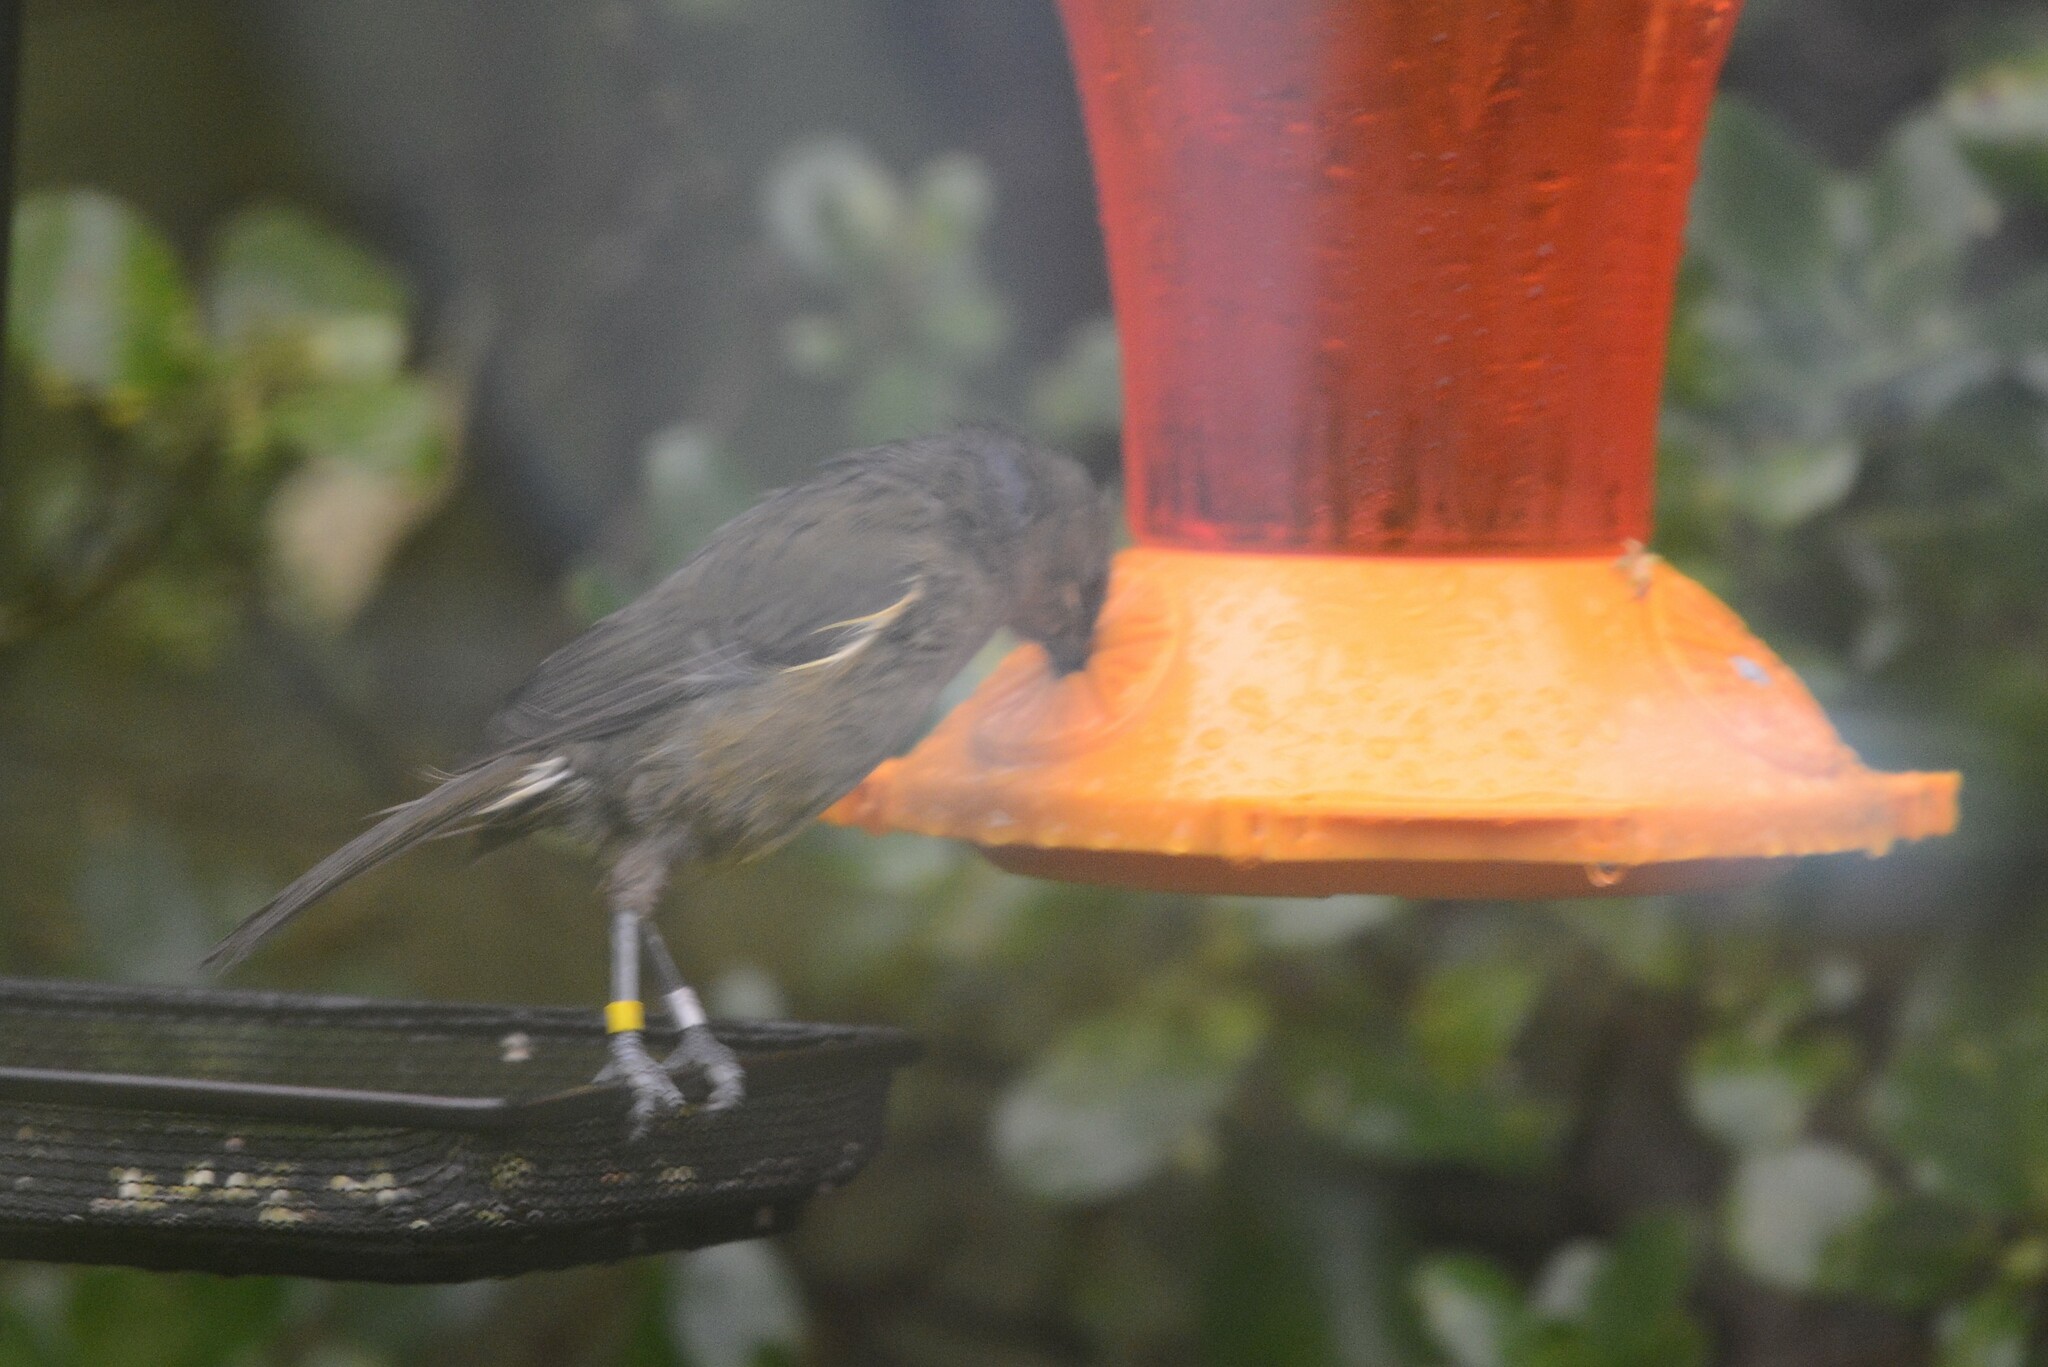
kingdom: Animalia
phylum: Chordata
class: Aves
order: Passeriformes
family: Meliphagidae
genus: Anthornis
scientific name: Anthornis melanura
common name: New zealand bellbird
